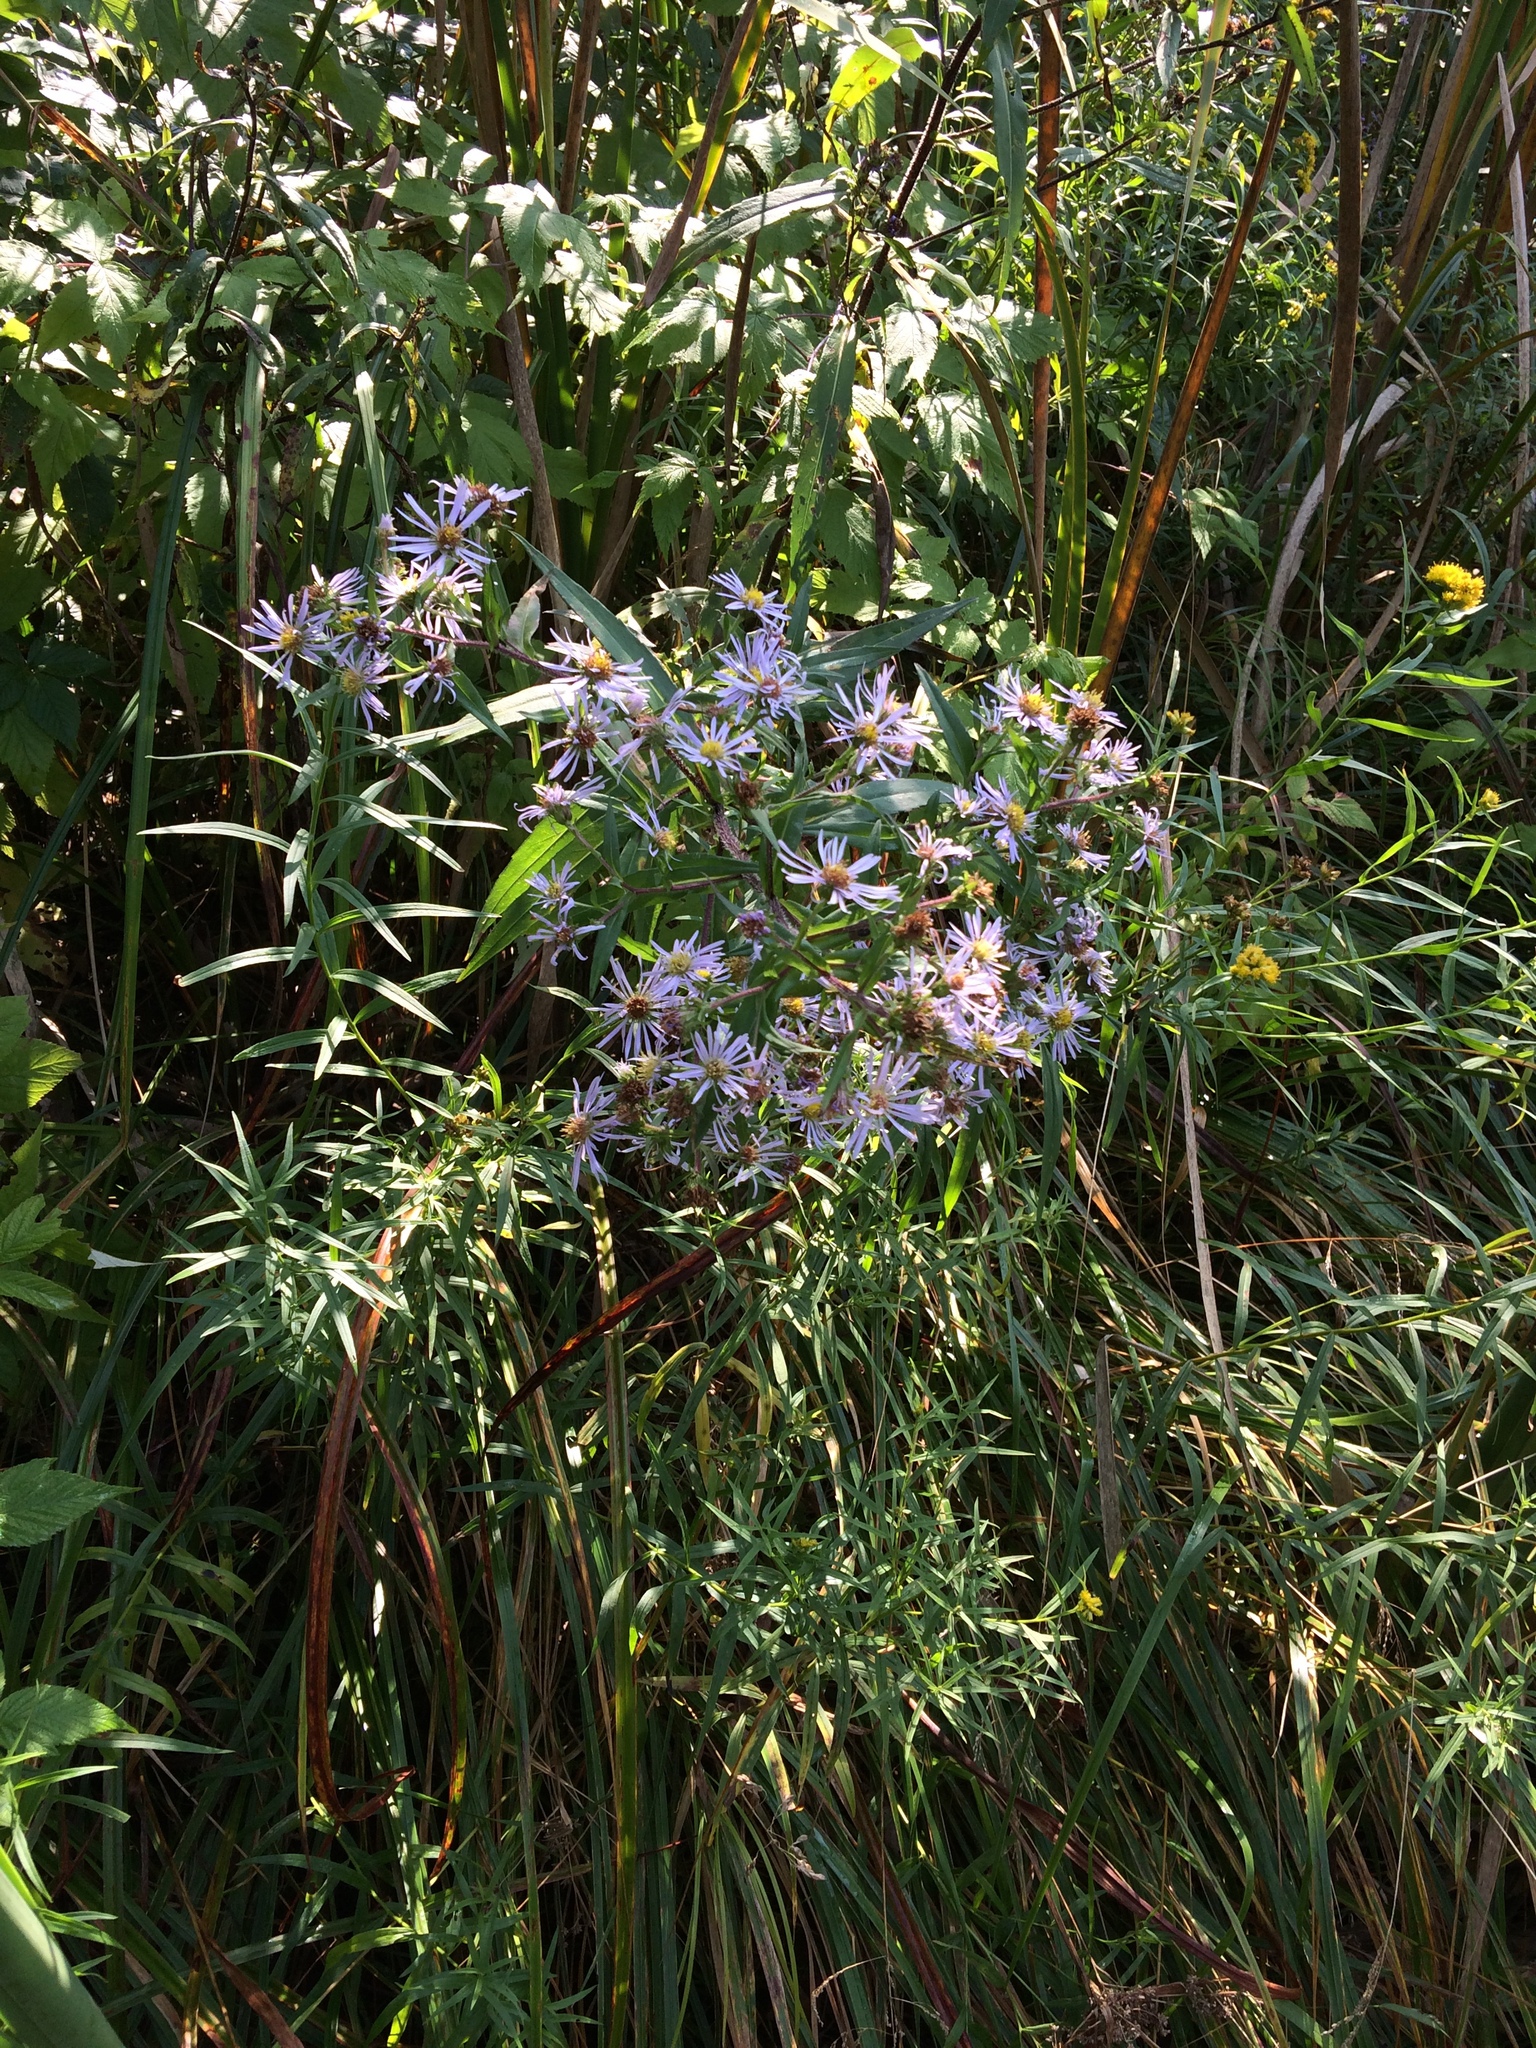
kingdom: Plantae
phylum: Tracheophyta
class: Magnoliopsida
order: Asterales
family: Asteraceae
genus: Symphyotrichum
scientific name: Symphyotrichum puniceum
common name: Bog aster
